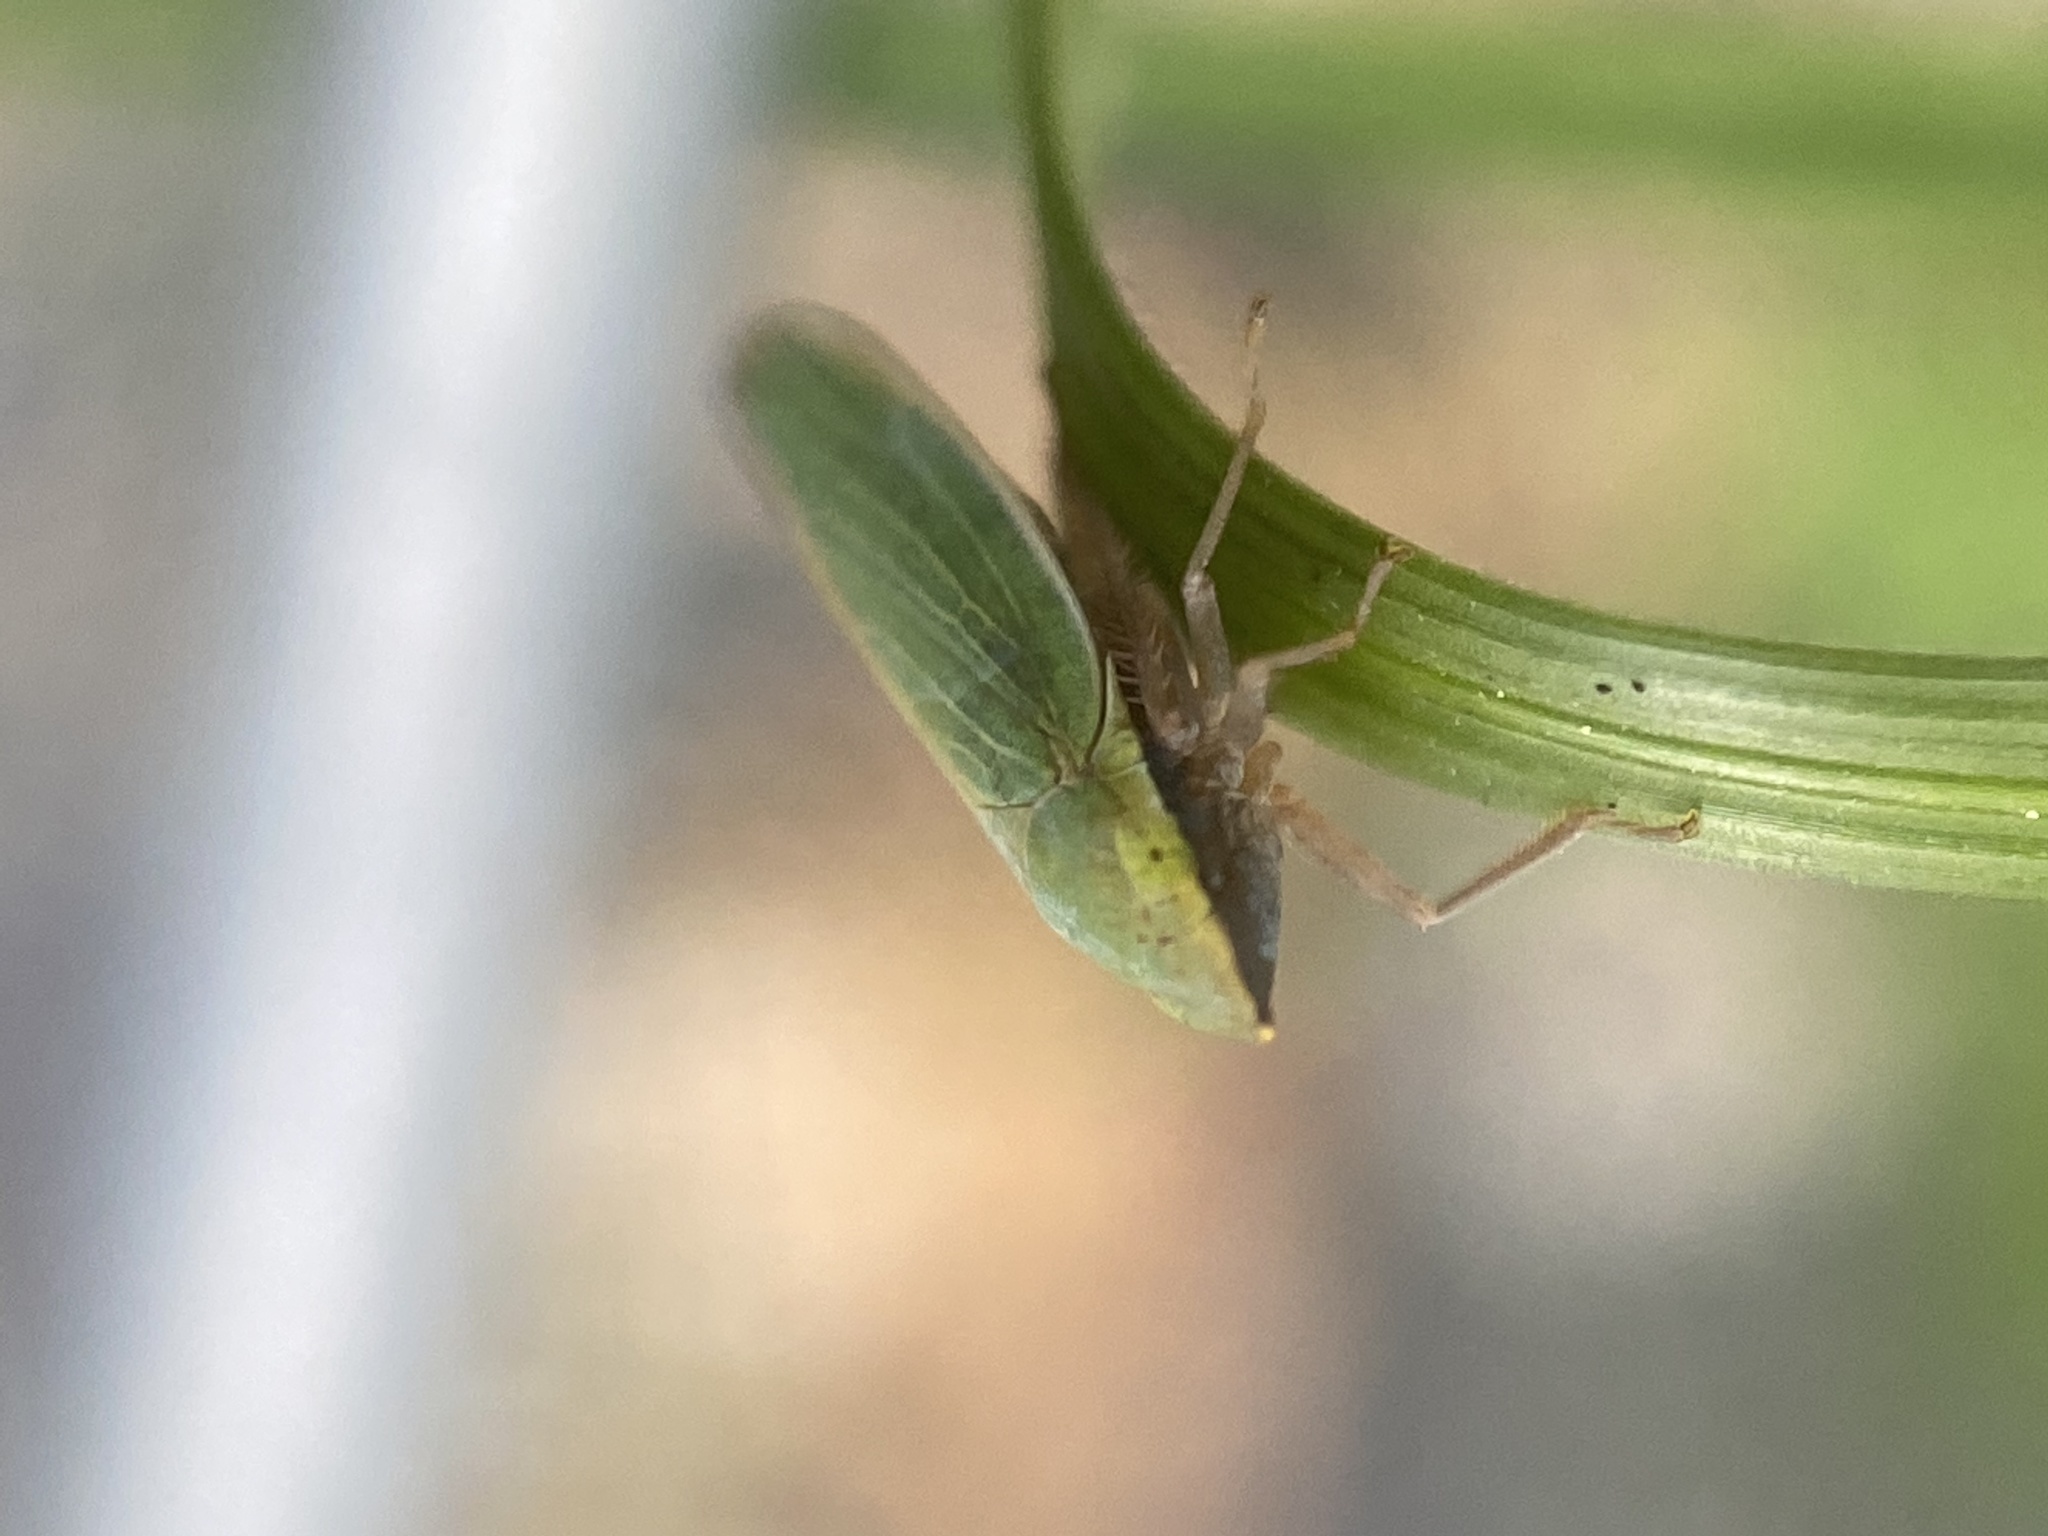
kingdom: Animalia
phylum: Arthropoda
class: Insecta
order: Hemiptera
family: Cicadellidae
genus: Draeculacephala
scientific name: Draeculacephala antica
